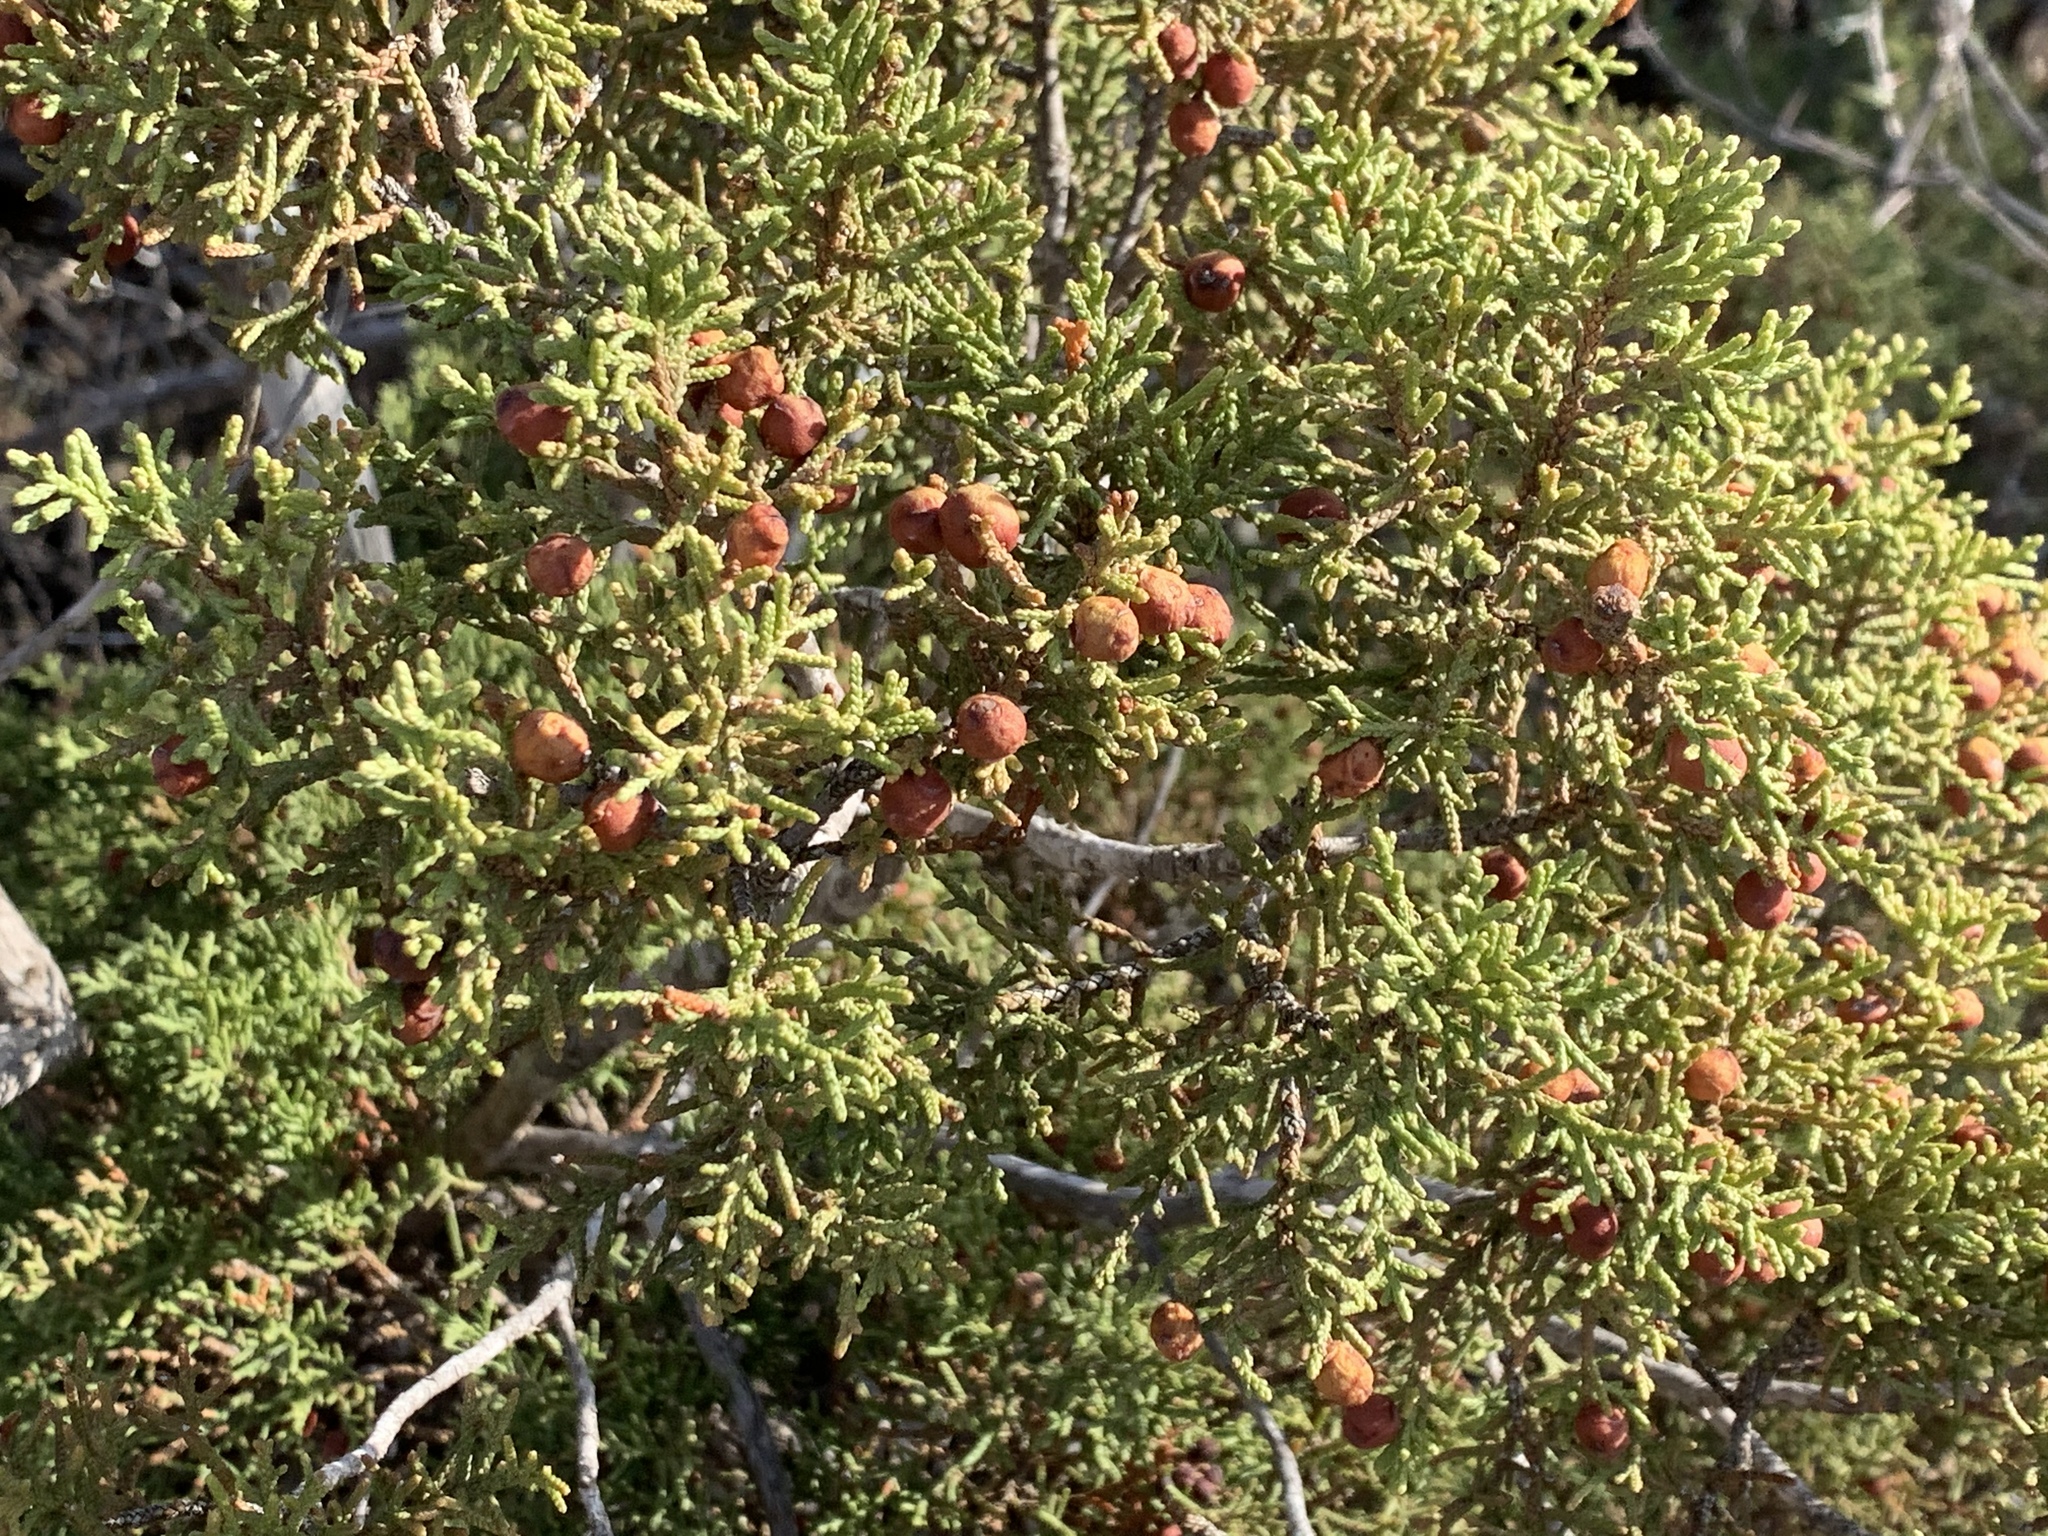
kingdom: Plantae
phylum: Tracheophyta
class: Pinopsida
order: Pinales
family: Cupressaceae
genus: Juniperus
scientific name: Juniperus pinchotii
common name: Pinchot juniper
